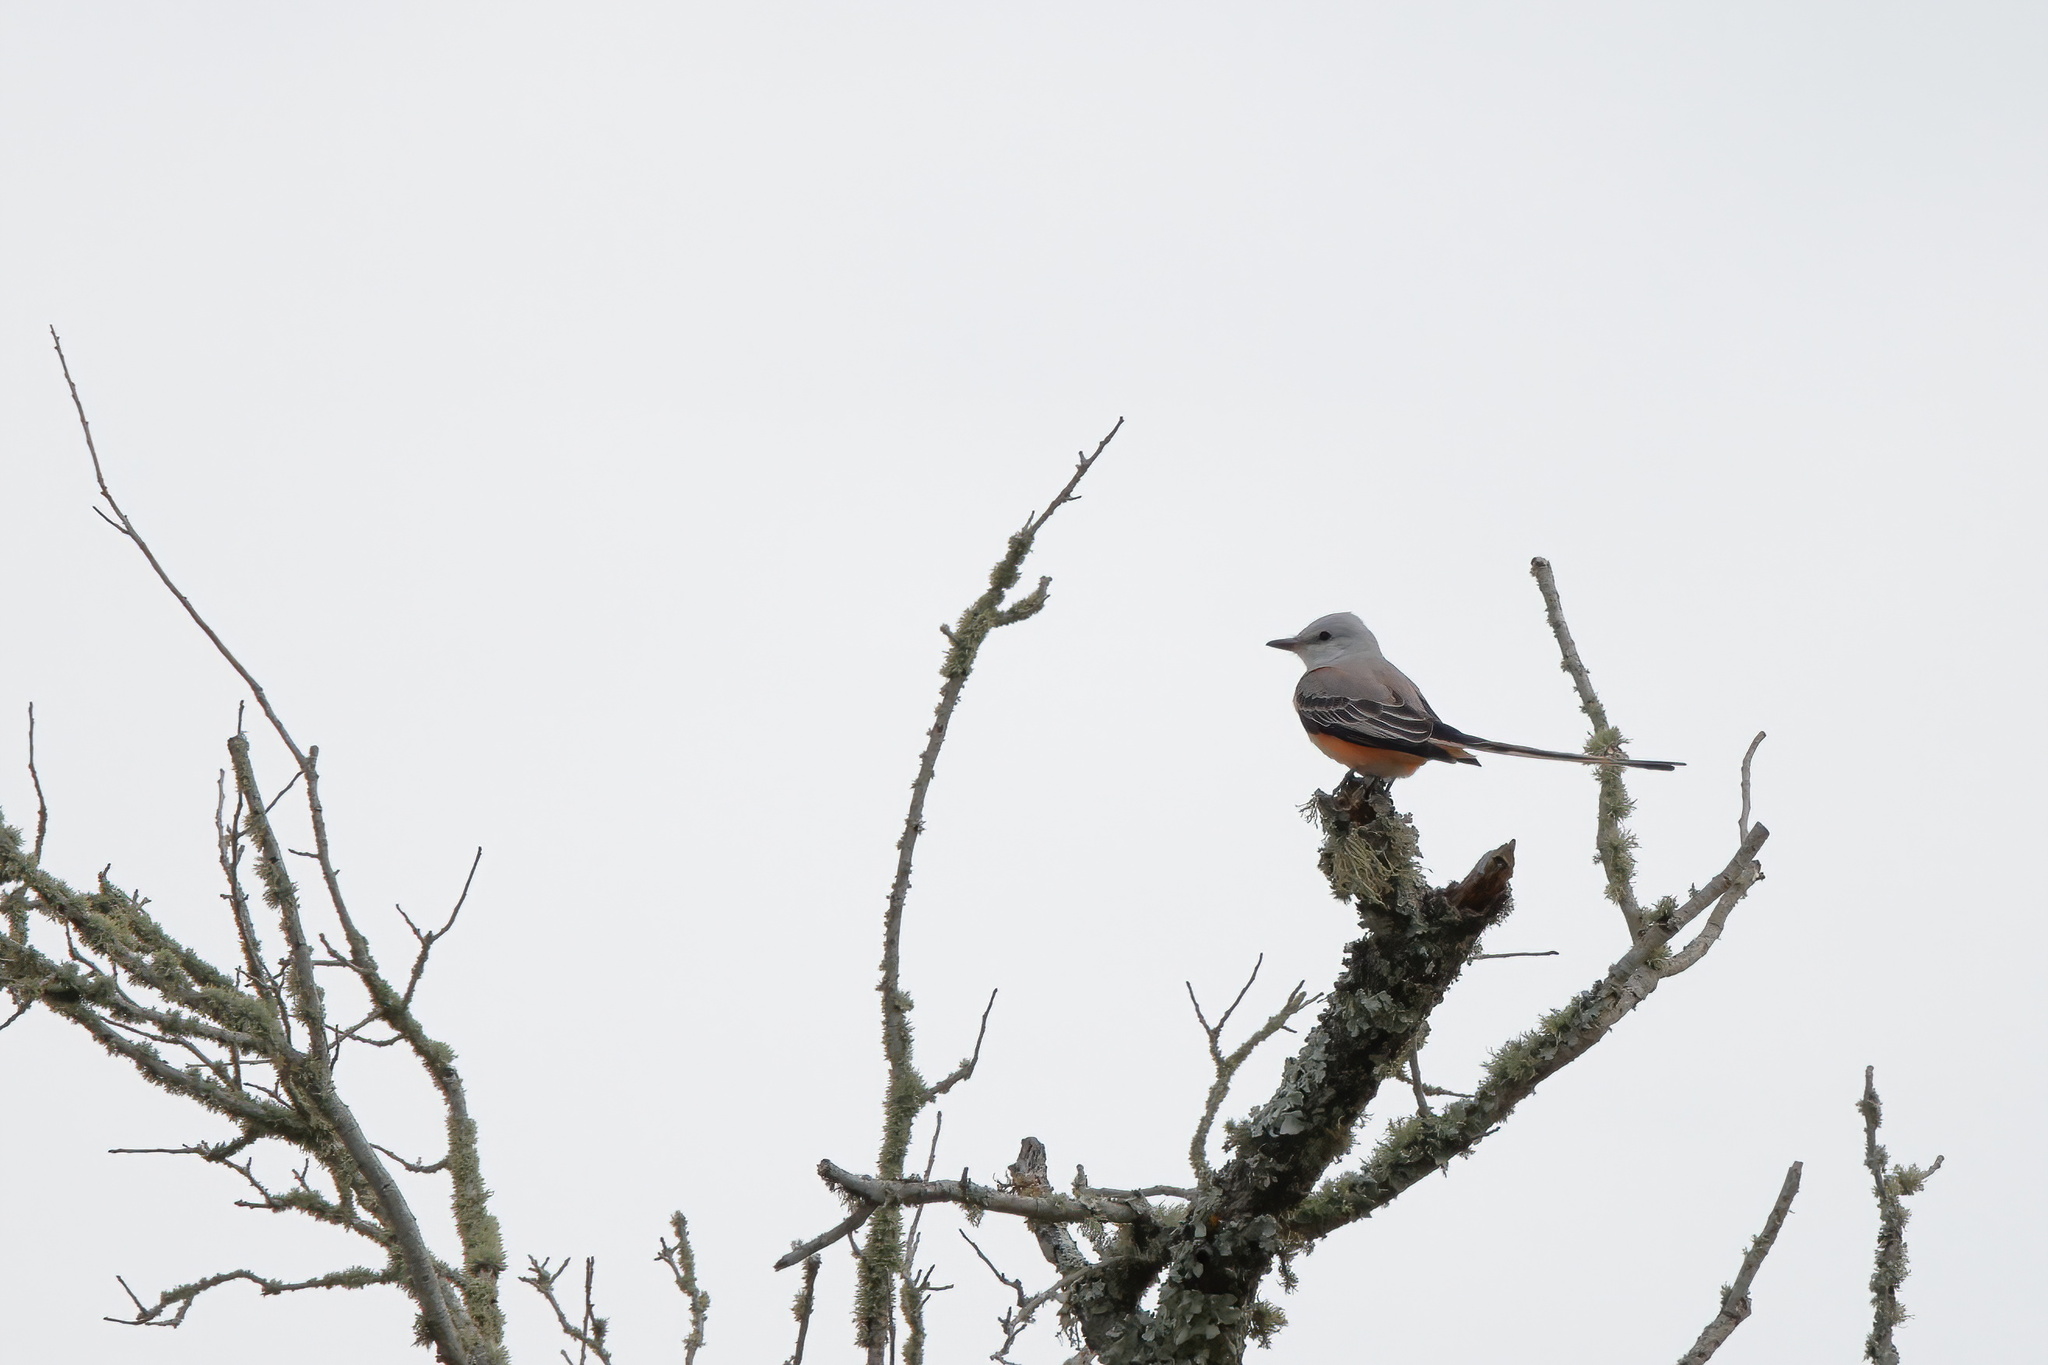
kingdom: Animalia
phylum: Chordata
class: Aves
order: Passeriformes
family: Tyrannidae
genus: Tyrannus
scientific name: Tyrannus forficatus
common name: Scissor-tailed flycatcher
